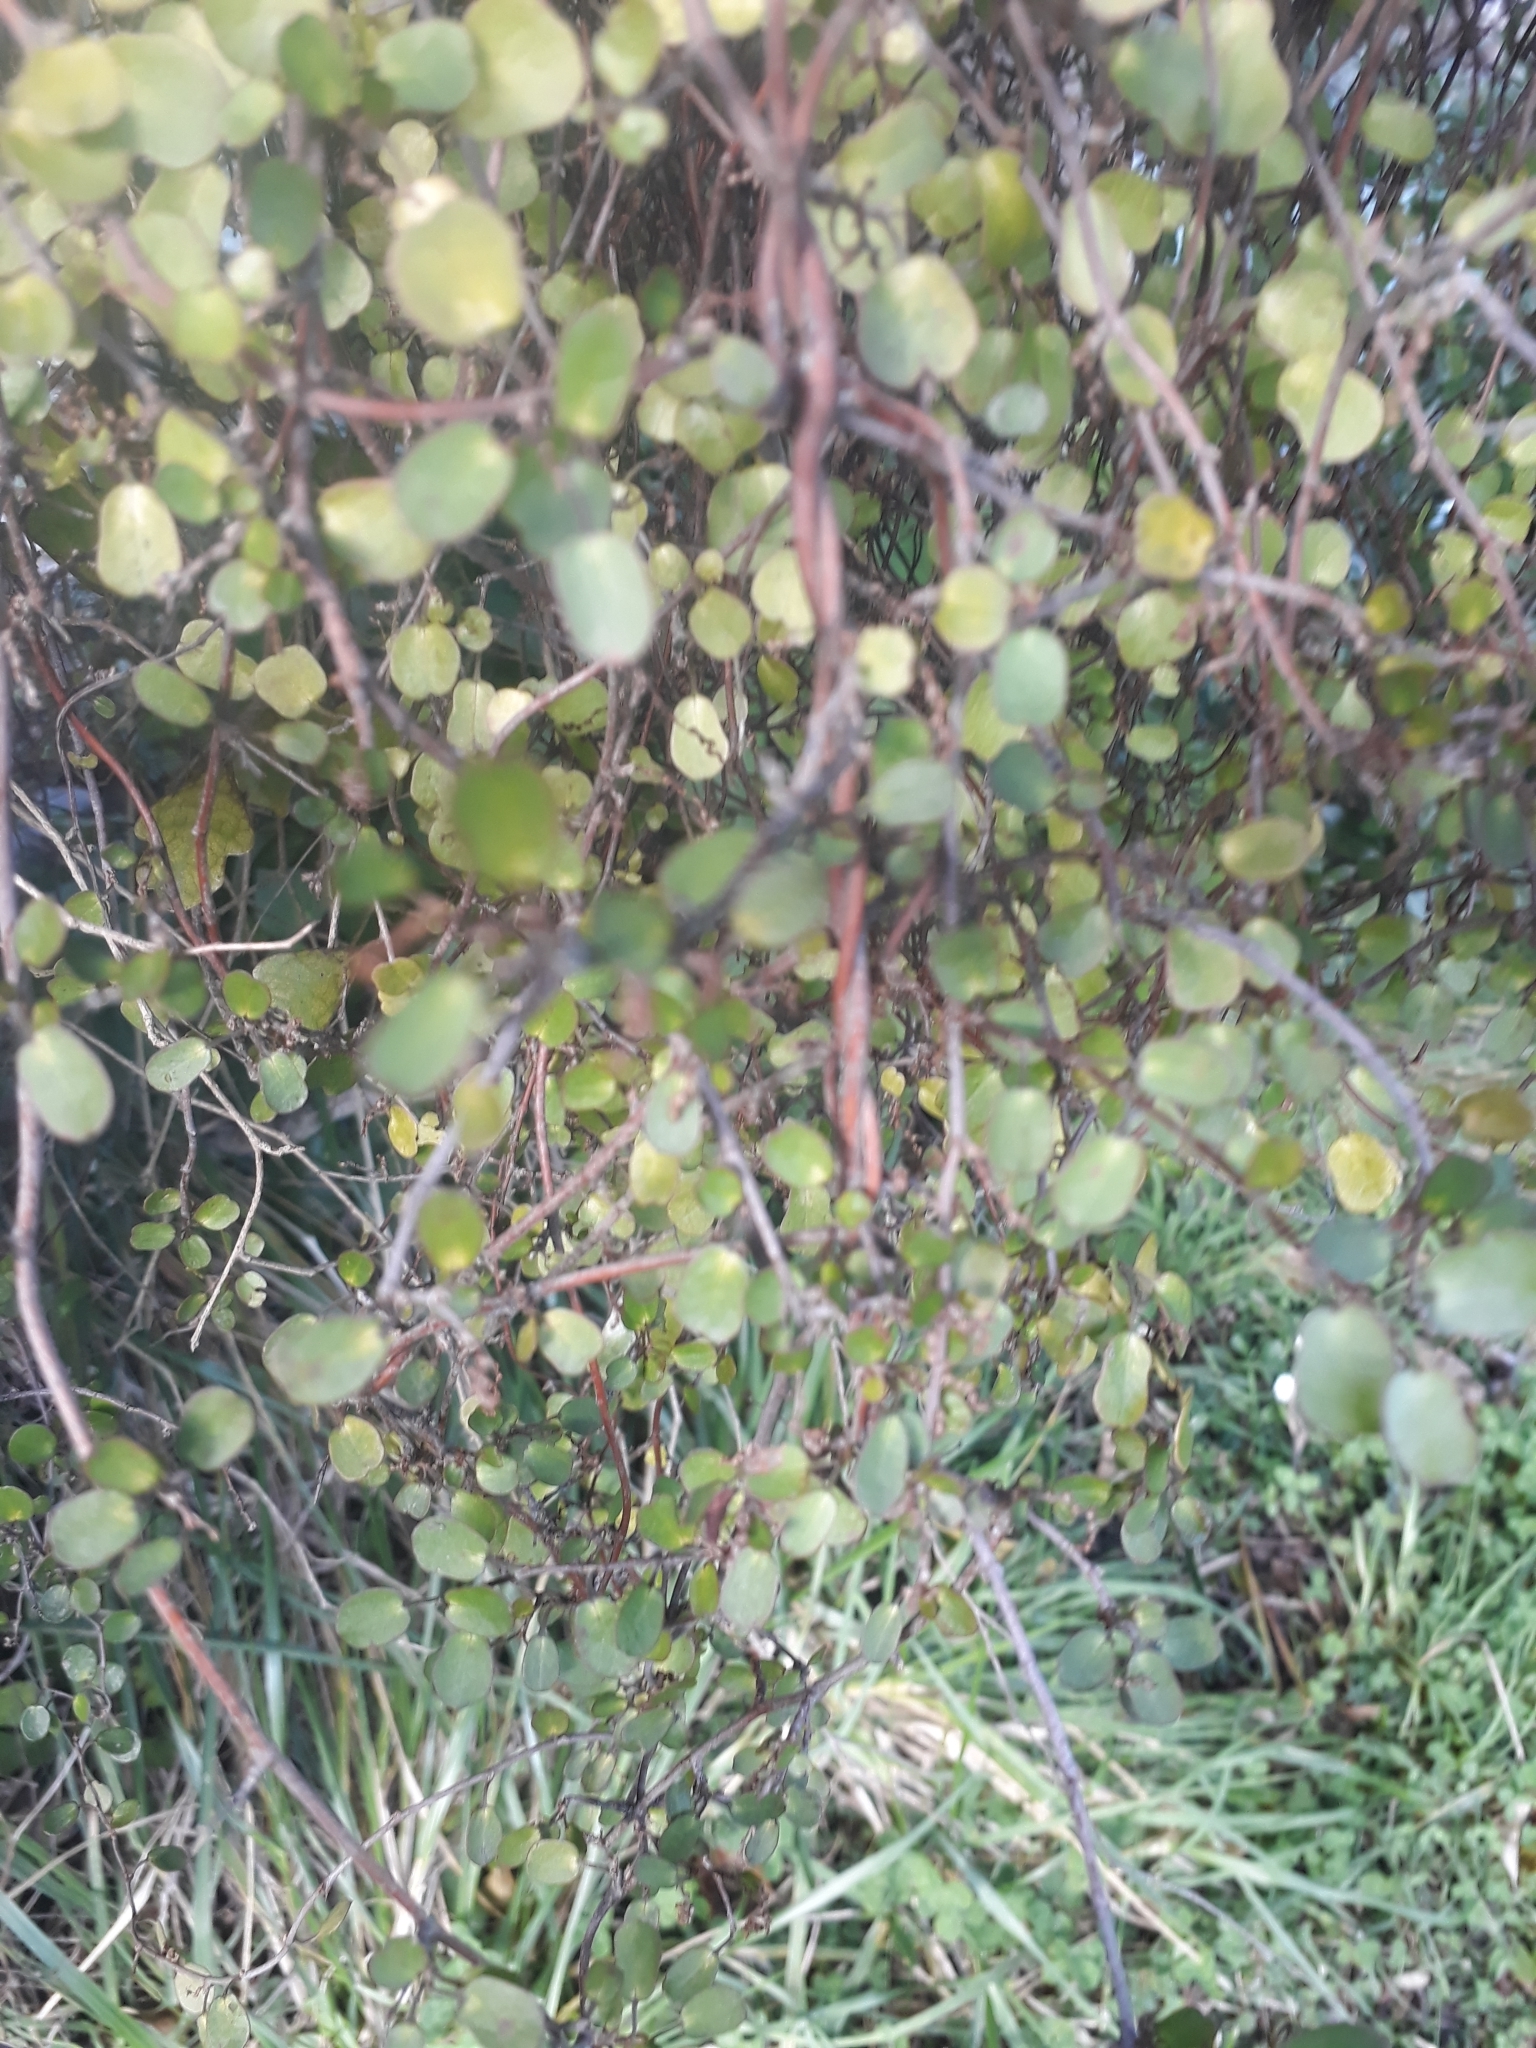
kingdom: Plantae
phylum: Tracheophyta
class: Magnoliopsida
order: Caryophyllales
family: Polygonaceae
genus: Muehlenbeckia
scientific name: Muehlenbeckia complexa
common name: Wireplant
